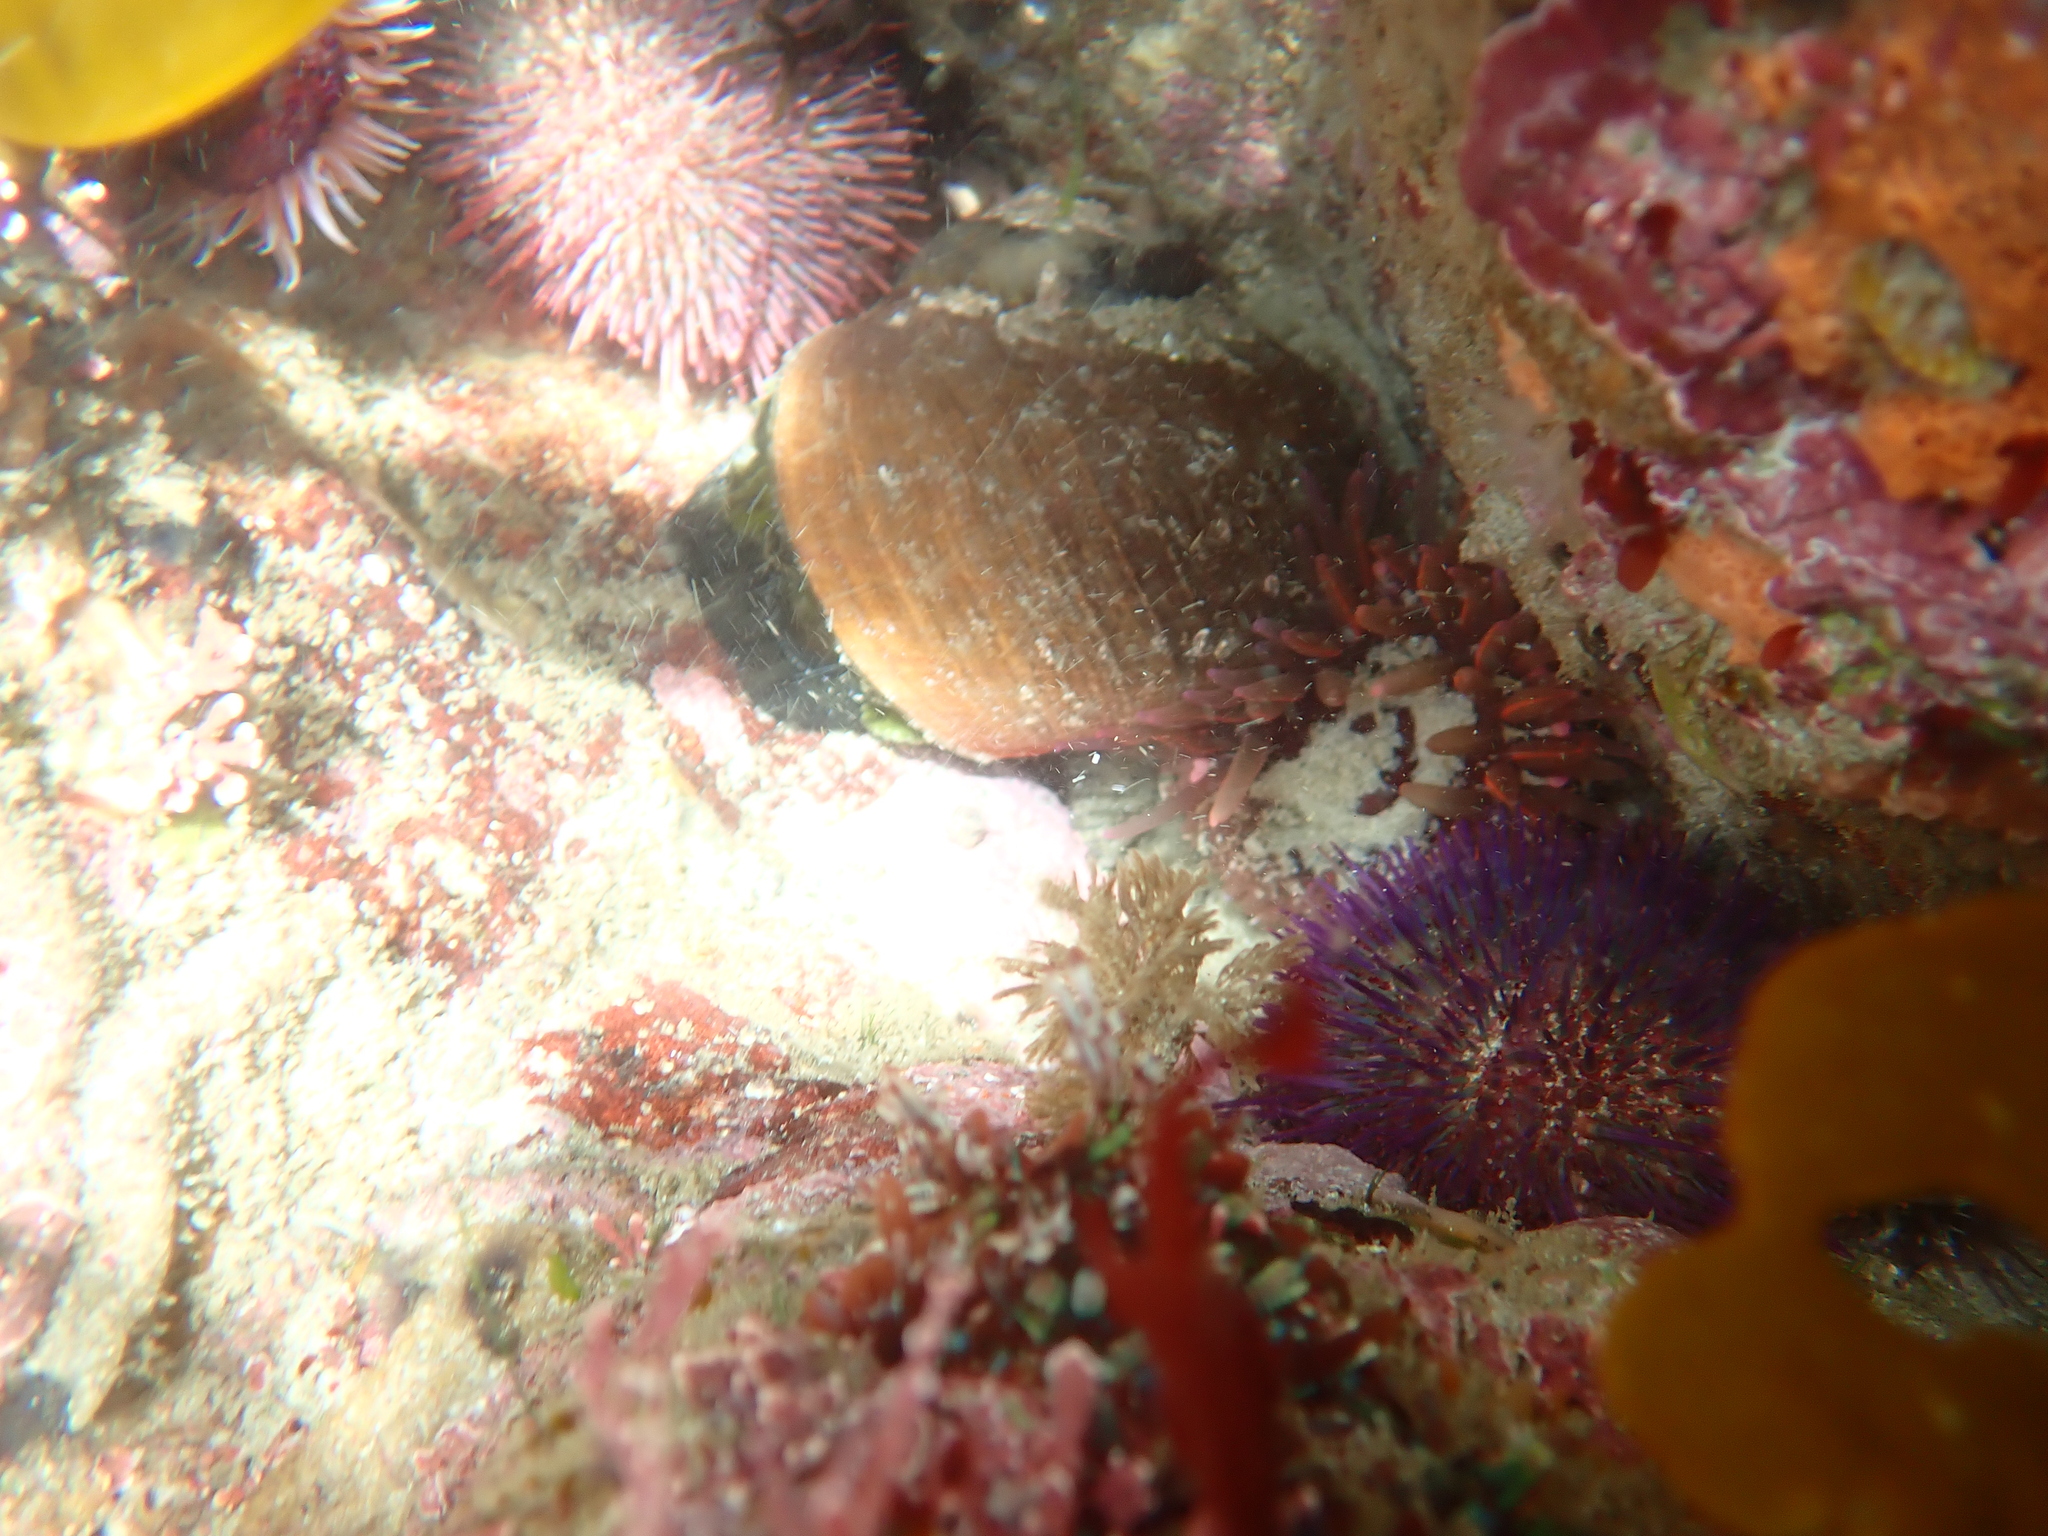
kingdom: Animalia
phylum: Mollusca
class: Gastropoda
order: Trochida
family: Turbinidae
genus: Turbo
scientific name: Turbo sarmaticus
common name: South african turban
